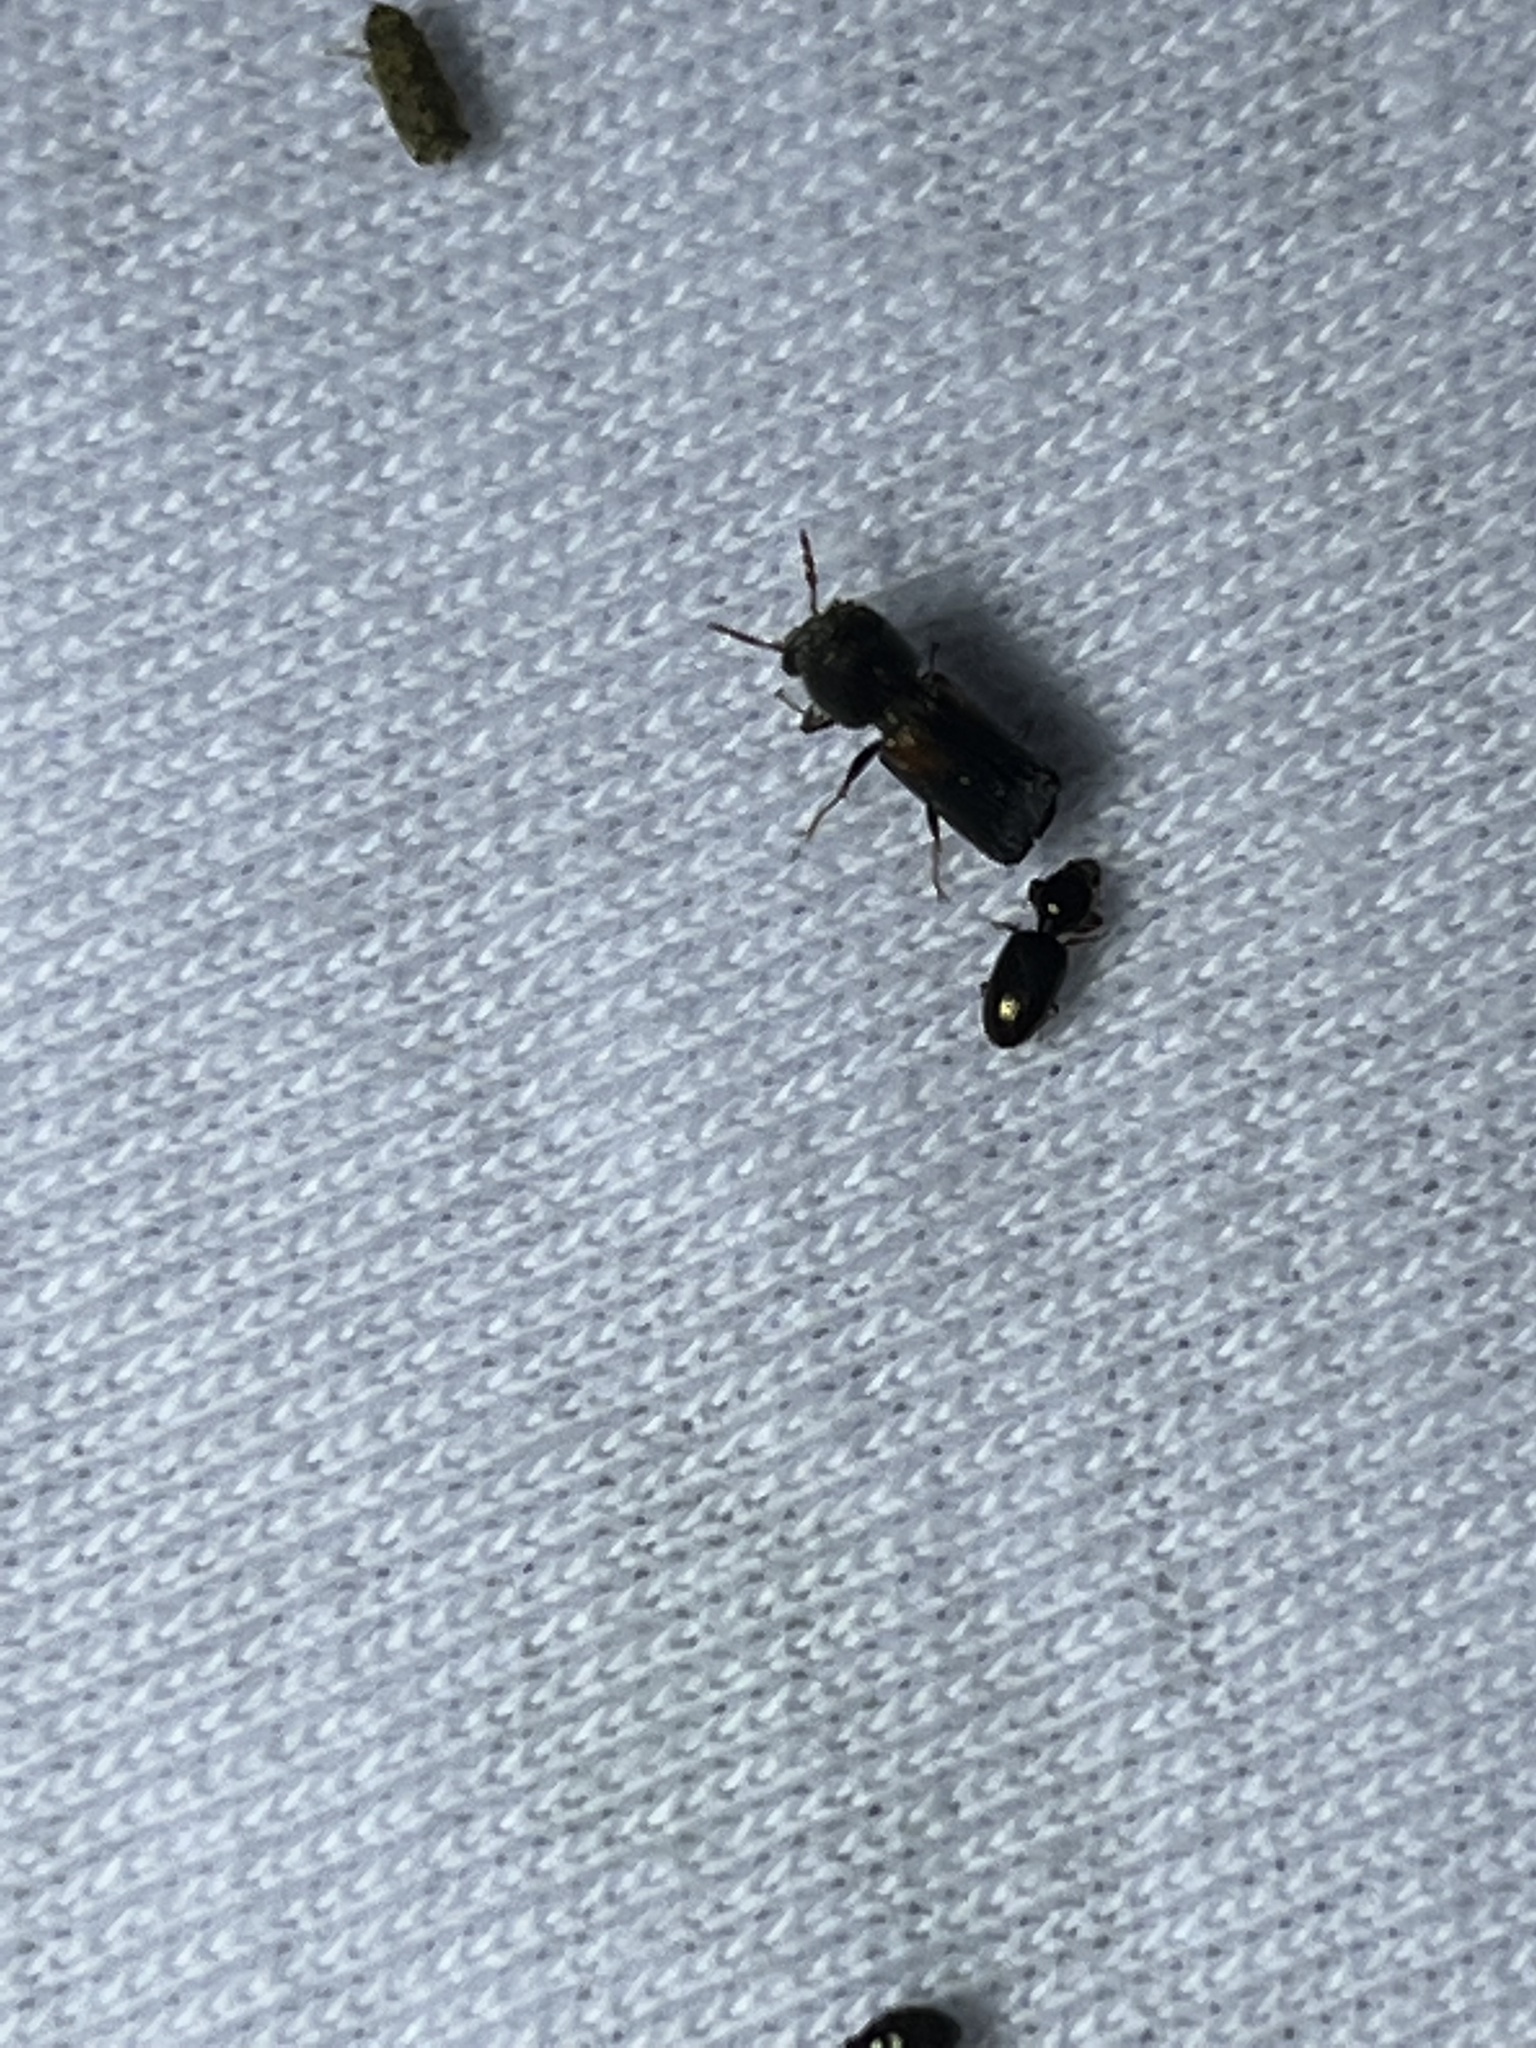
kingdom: Animalia
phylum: Arthropoda
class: Insecta
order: Coleoptera
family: Bostrichidae
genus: Xylobiops
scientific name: Xylobiops basilaris
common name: Red-shouldered bostrichid
